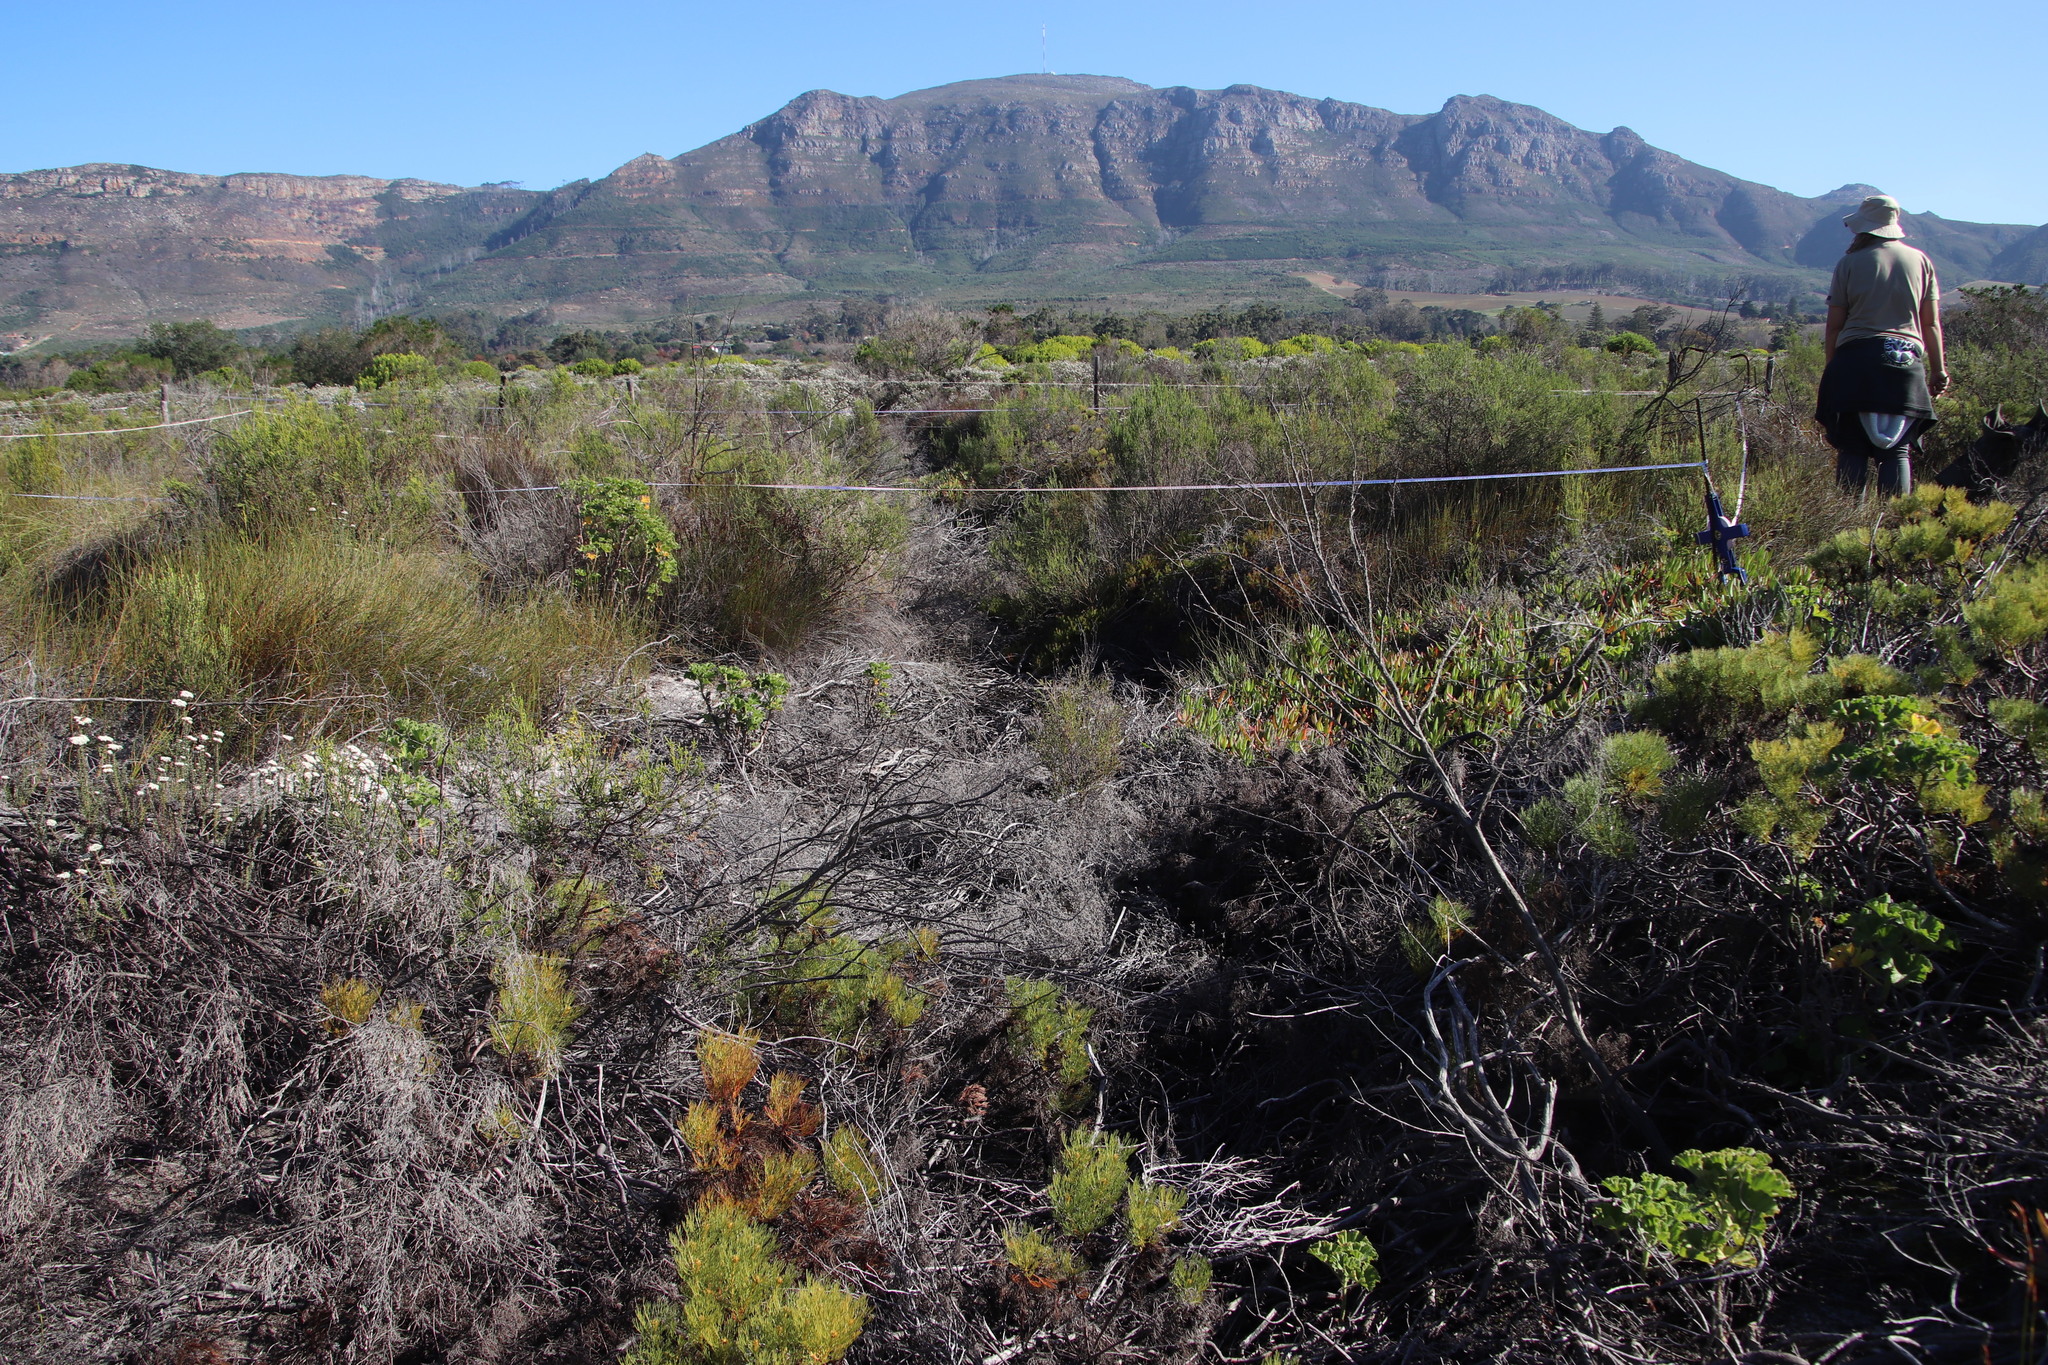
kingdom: Plantae
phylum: Tracheophyta
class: Magnoliopsida
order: Proteales
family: Proteaceae
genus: Serruria
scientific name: Serruria glomerata
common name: Cluster spiderhead
